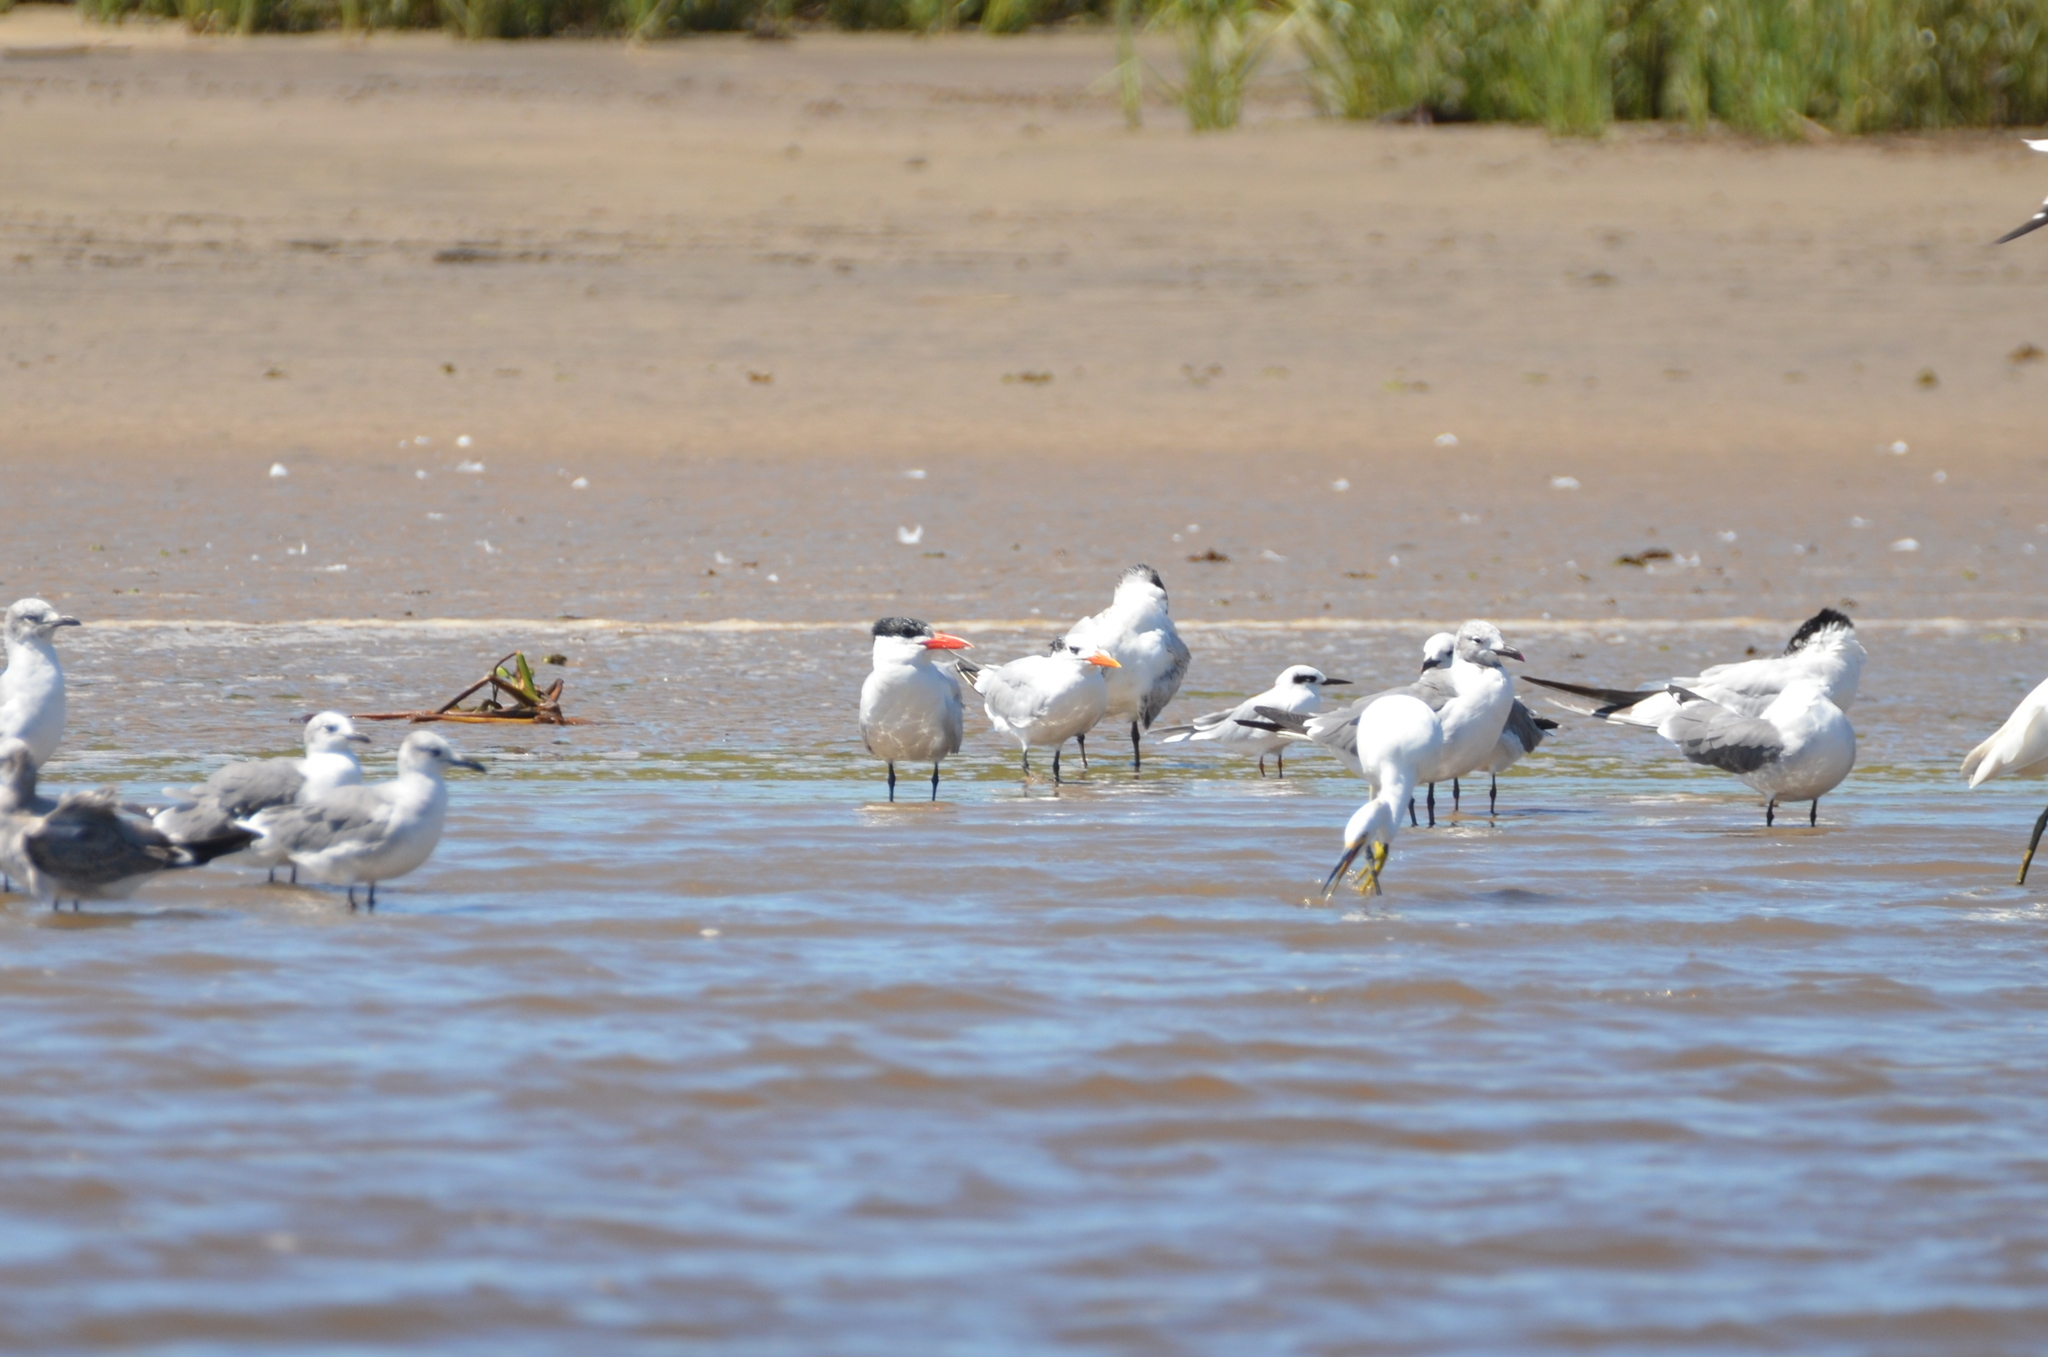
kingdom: Animalia
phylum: Chordata
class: Aves
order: Charadriiformes
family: Laridae
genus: Hydroprogne
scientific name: Hydroprogne caspia
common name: Caspian tern
